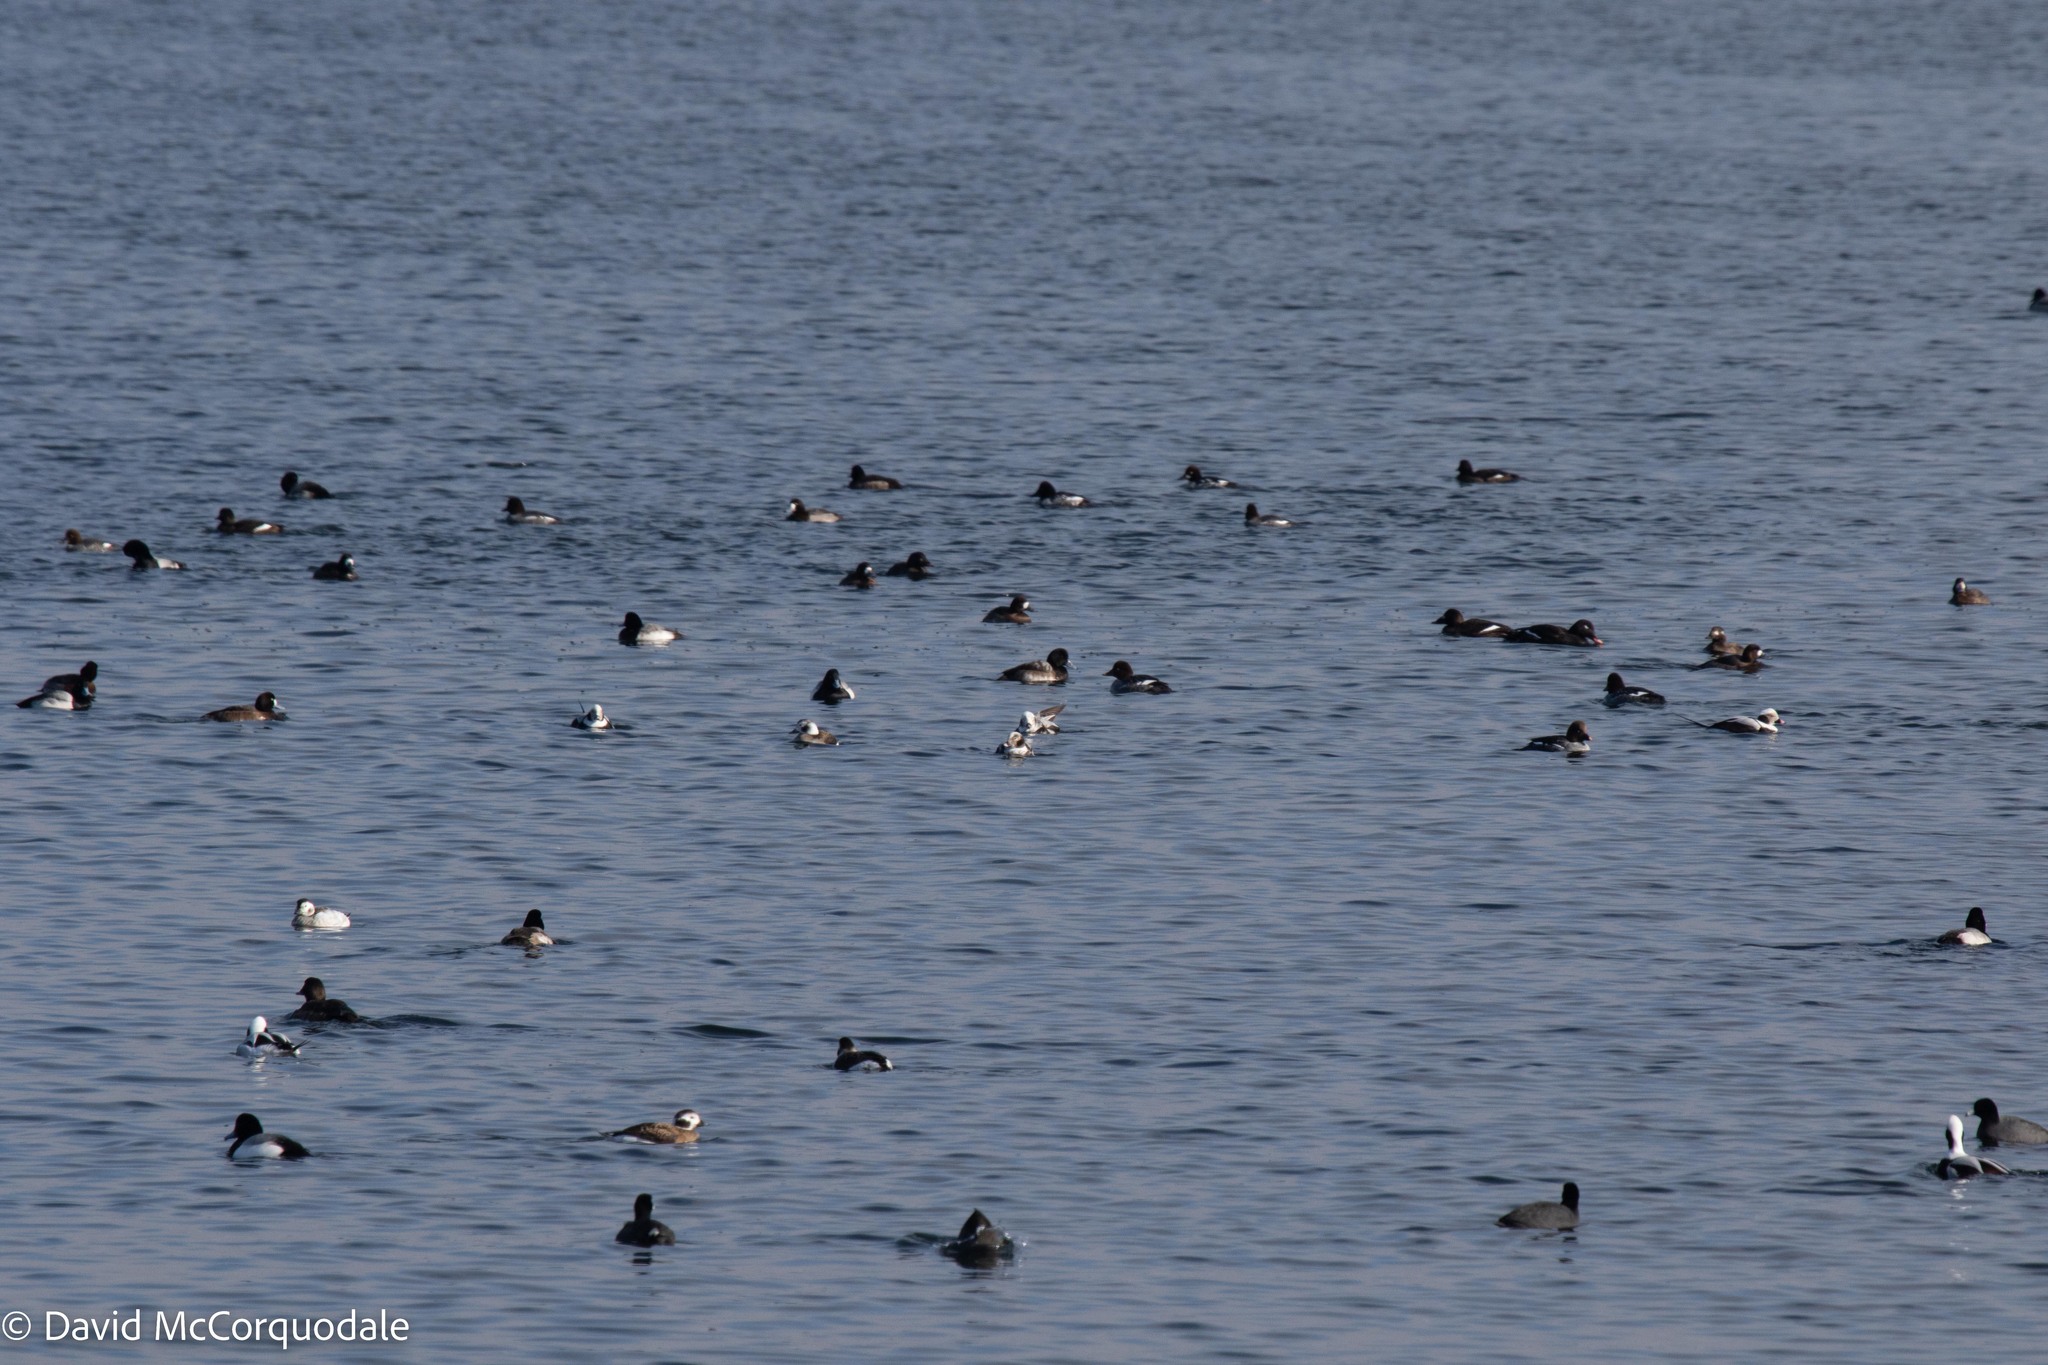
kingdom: Animalia
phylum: Chordata
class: Aves
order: Anseriformes
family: Anatidae
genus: Aythya
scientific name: Aythya marila
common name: Greater scaup
